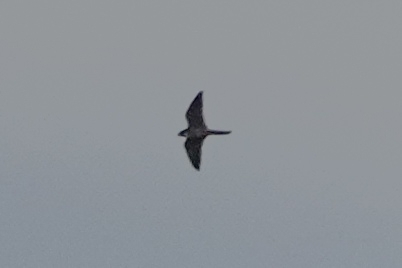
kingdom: Animalia
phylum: Chordata
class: Aves
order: Falconiformes
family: Falconidae
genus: Falco
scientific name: Falco subbuteo
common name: Eurasian hobby
